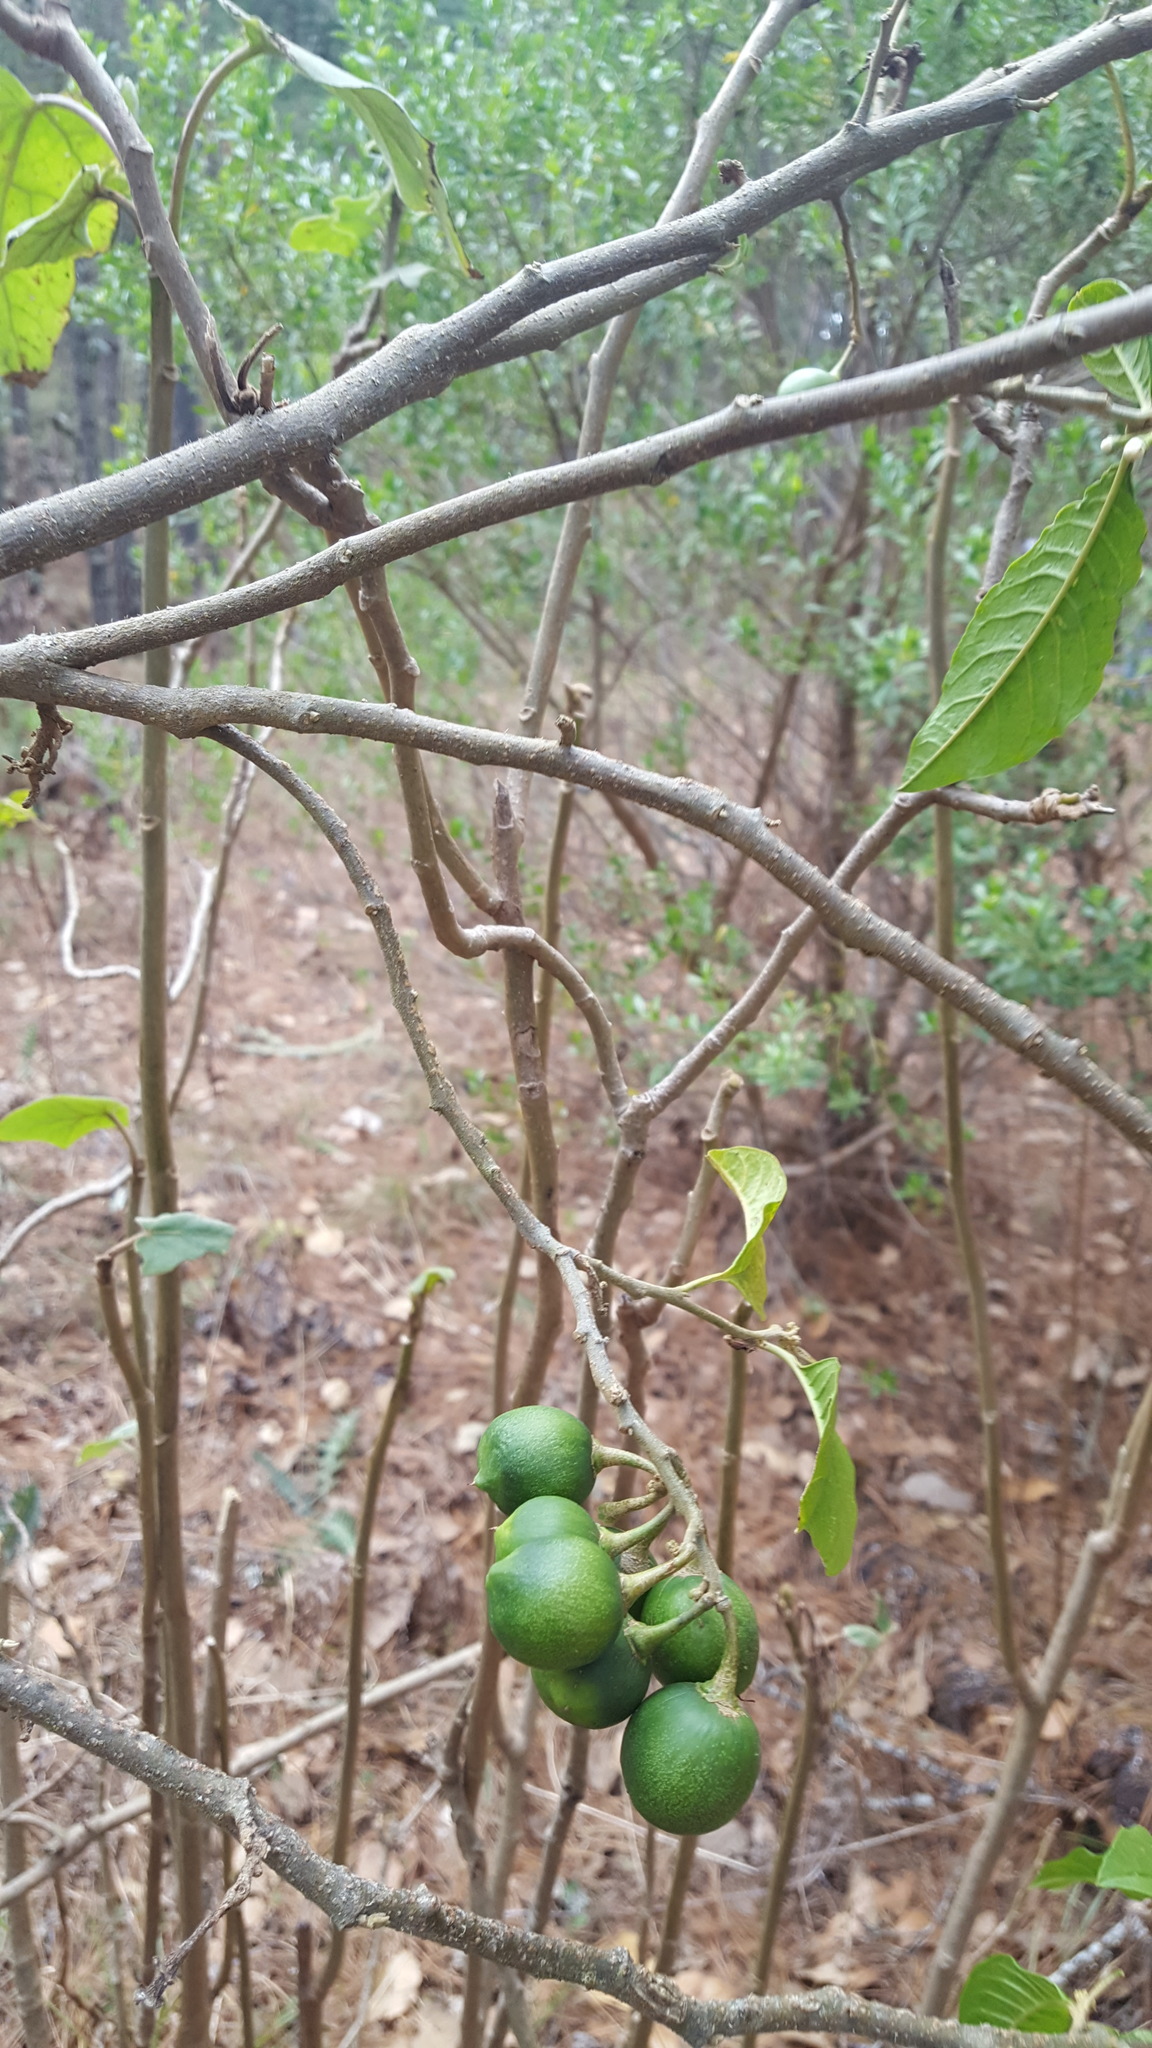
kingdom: Plantae
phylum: Tracheophyta
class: Magnoliopsida
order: Garryales
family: Garryaceae
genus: Garrya
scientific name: Garrya laurifolia
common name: Cuachichic
